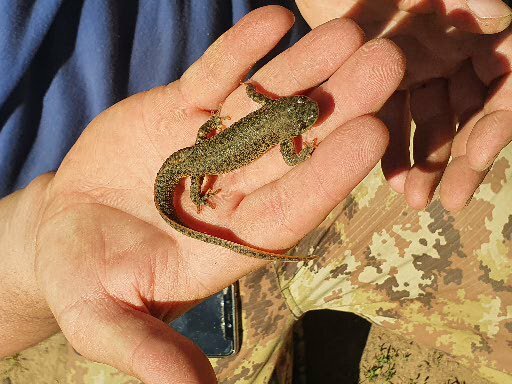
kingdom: Animalia
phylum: Chordata
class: Amphibia
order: Caudata
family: Salamandridae
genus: Pleurodeles
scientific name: Pleurodeles nebulosus
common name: Algerian ribbed newt
